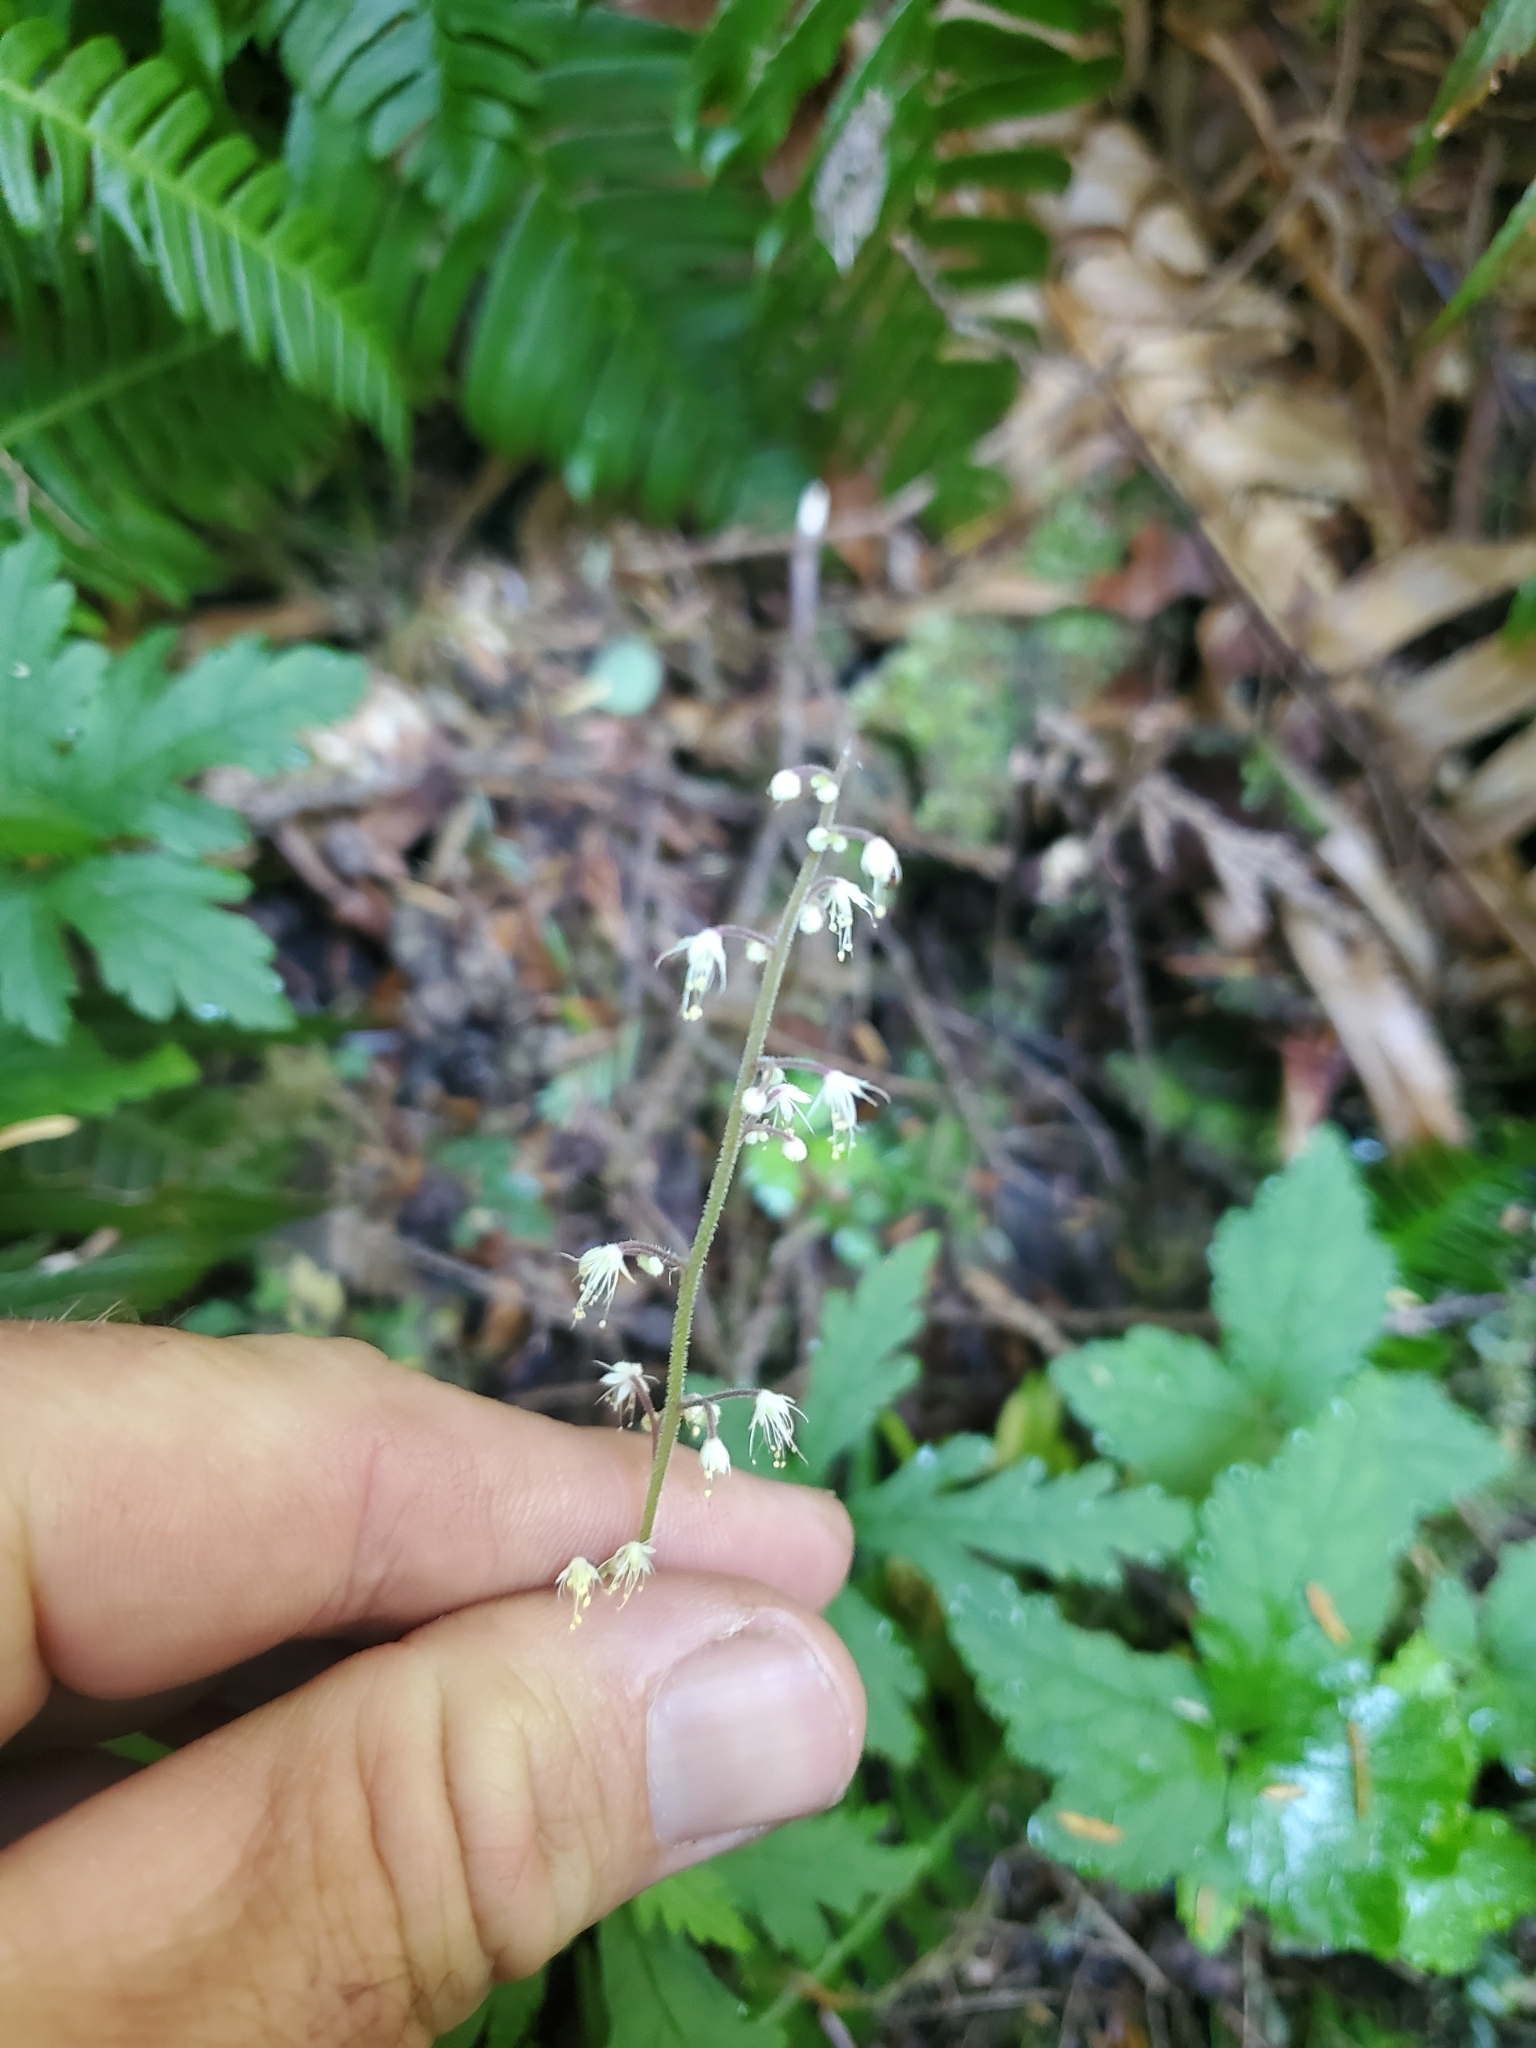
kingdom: Plantae
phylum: Tracheophyta
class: Magnoliopsida
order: Saxifragales
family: Saxifragaceae
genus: Tiarella
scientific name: Tiarella trifoliata
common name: Sugar-scoop
